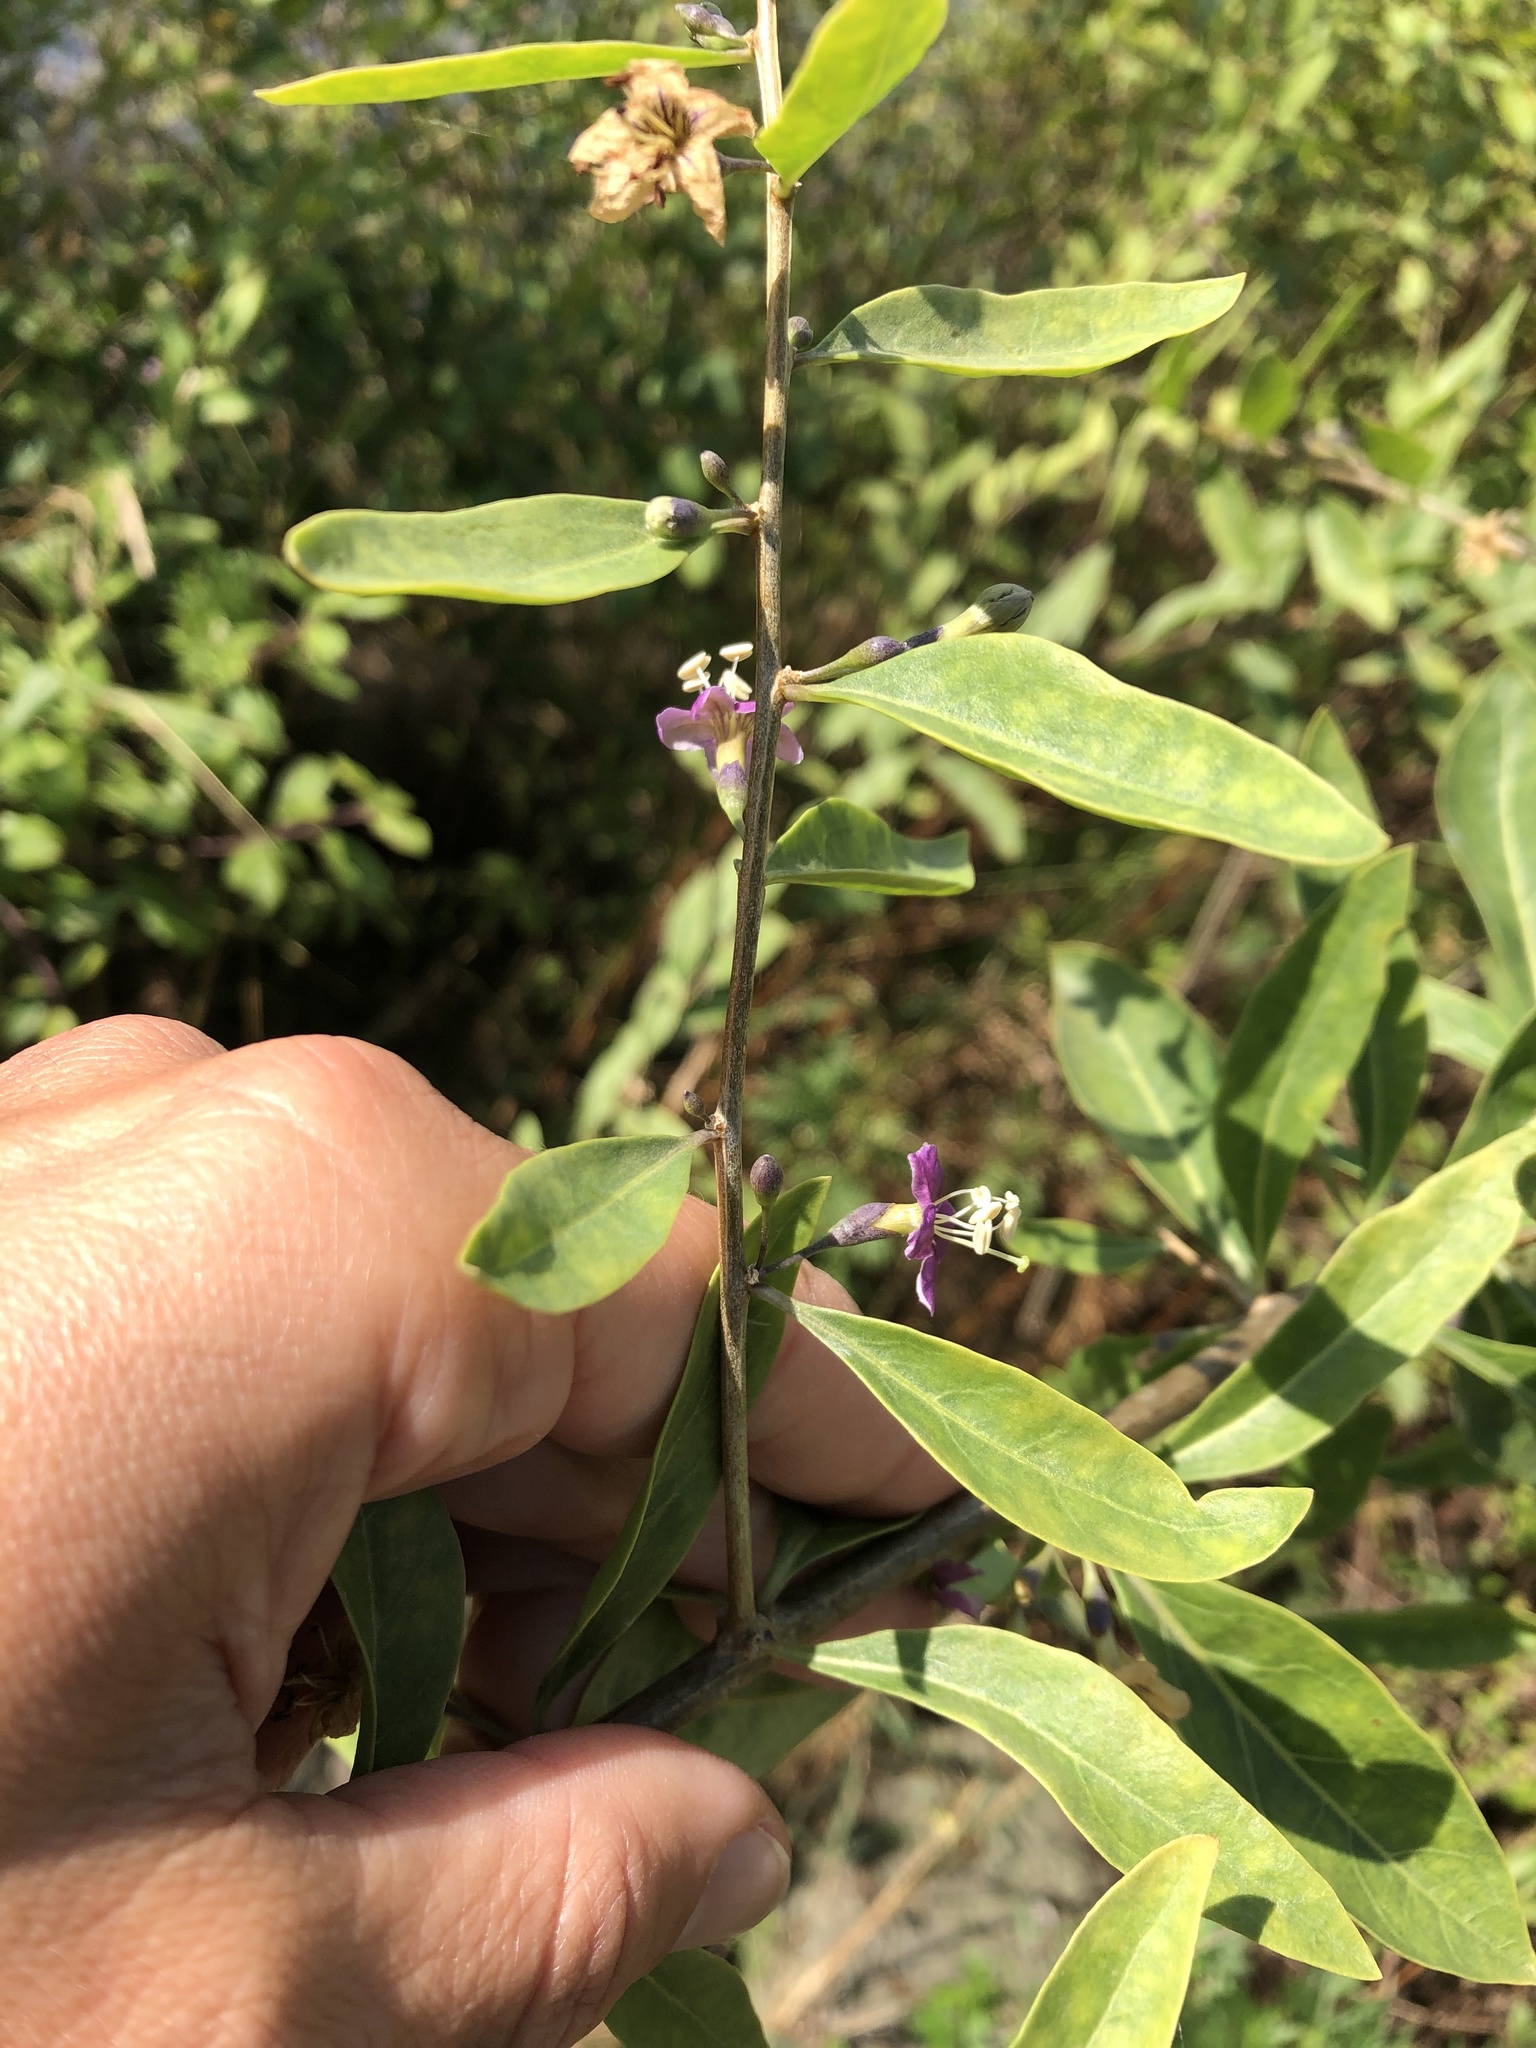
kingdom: Plantae
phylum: Tracheophyta
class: Magnoliopsida
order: Solanales
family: Solanaceae
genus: Lycium
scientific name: Lycium barbarum
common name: Duke of argyll's teaplant
